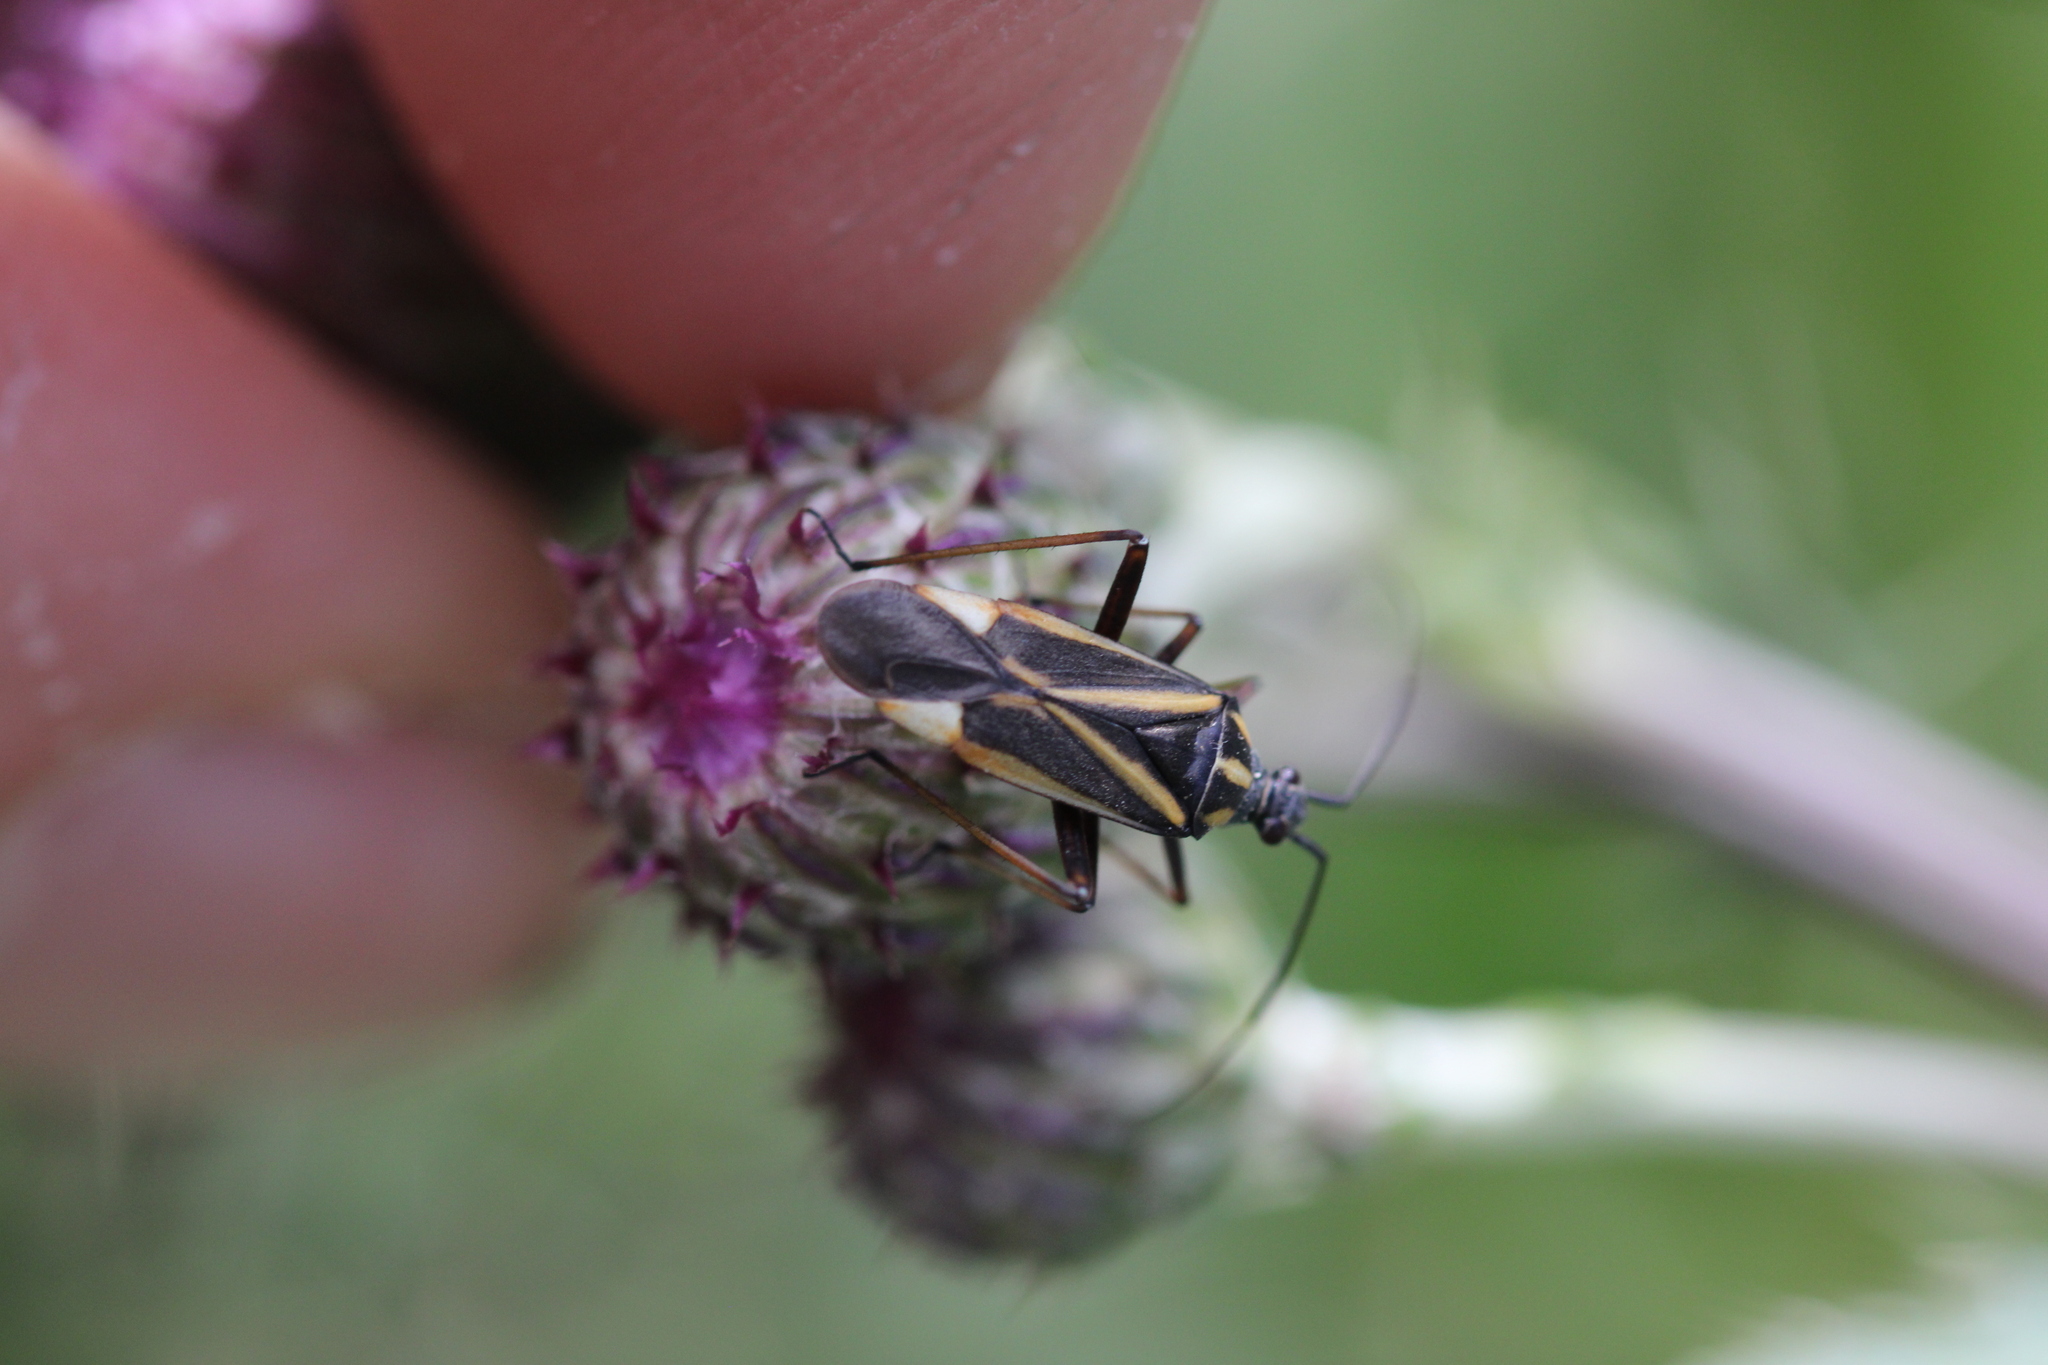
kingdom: Animalia
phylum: Arthropoda
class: Insecta
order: Hemiptera
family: Miridae
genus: Hadrodemus
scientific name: Hadrodemus m-flavum
